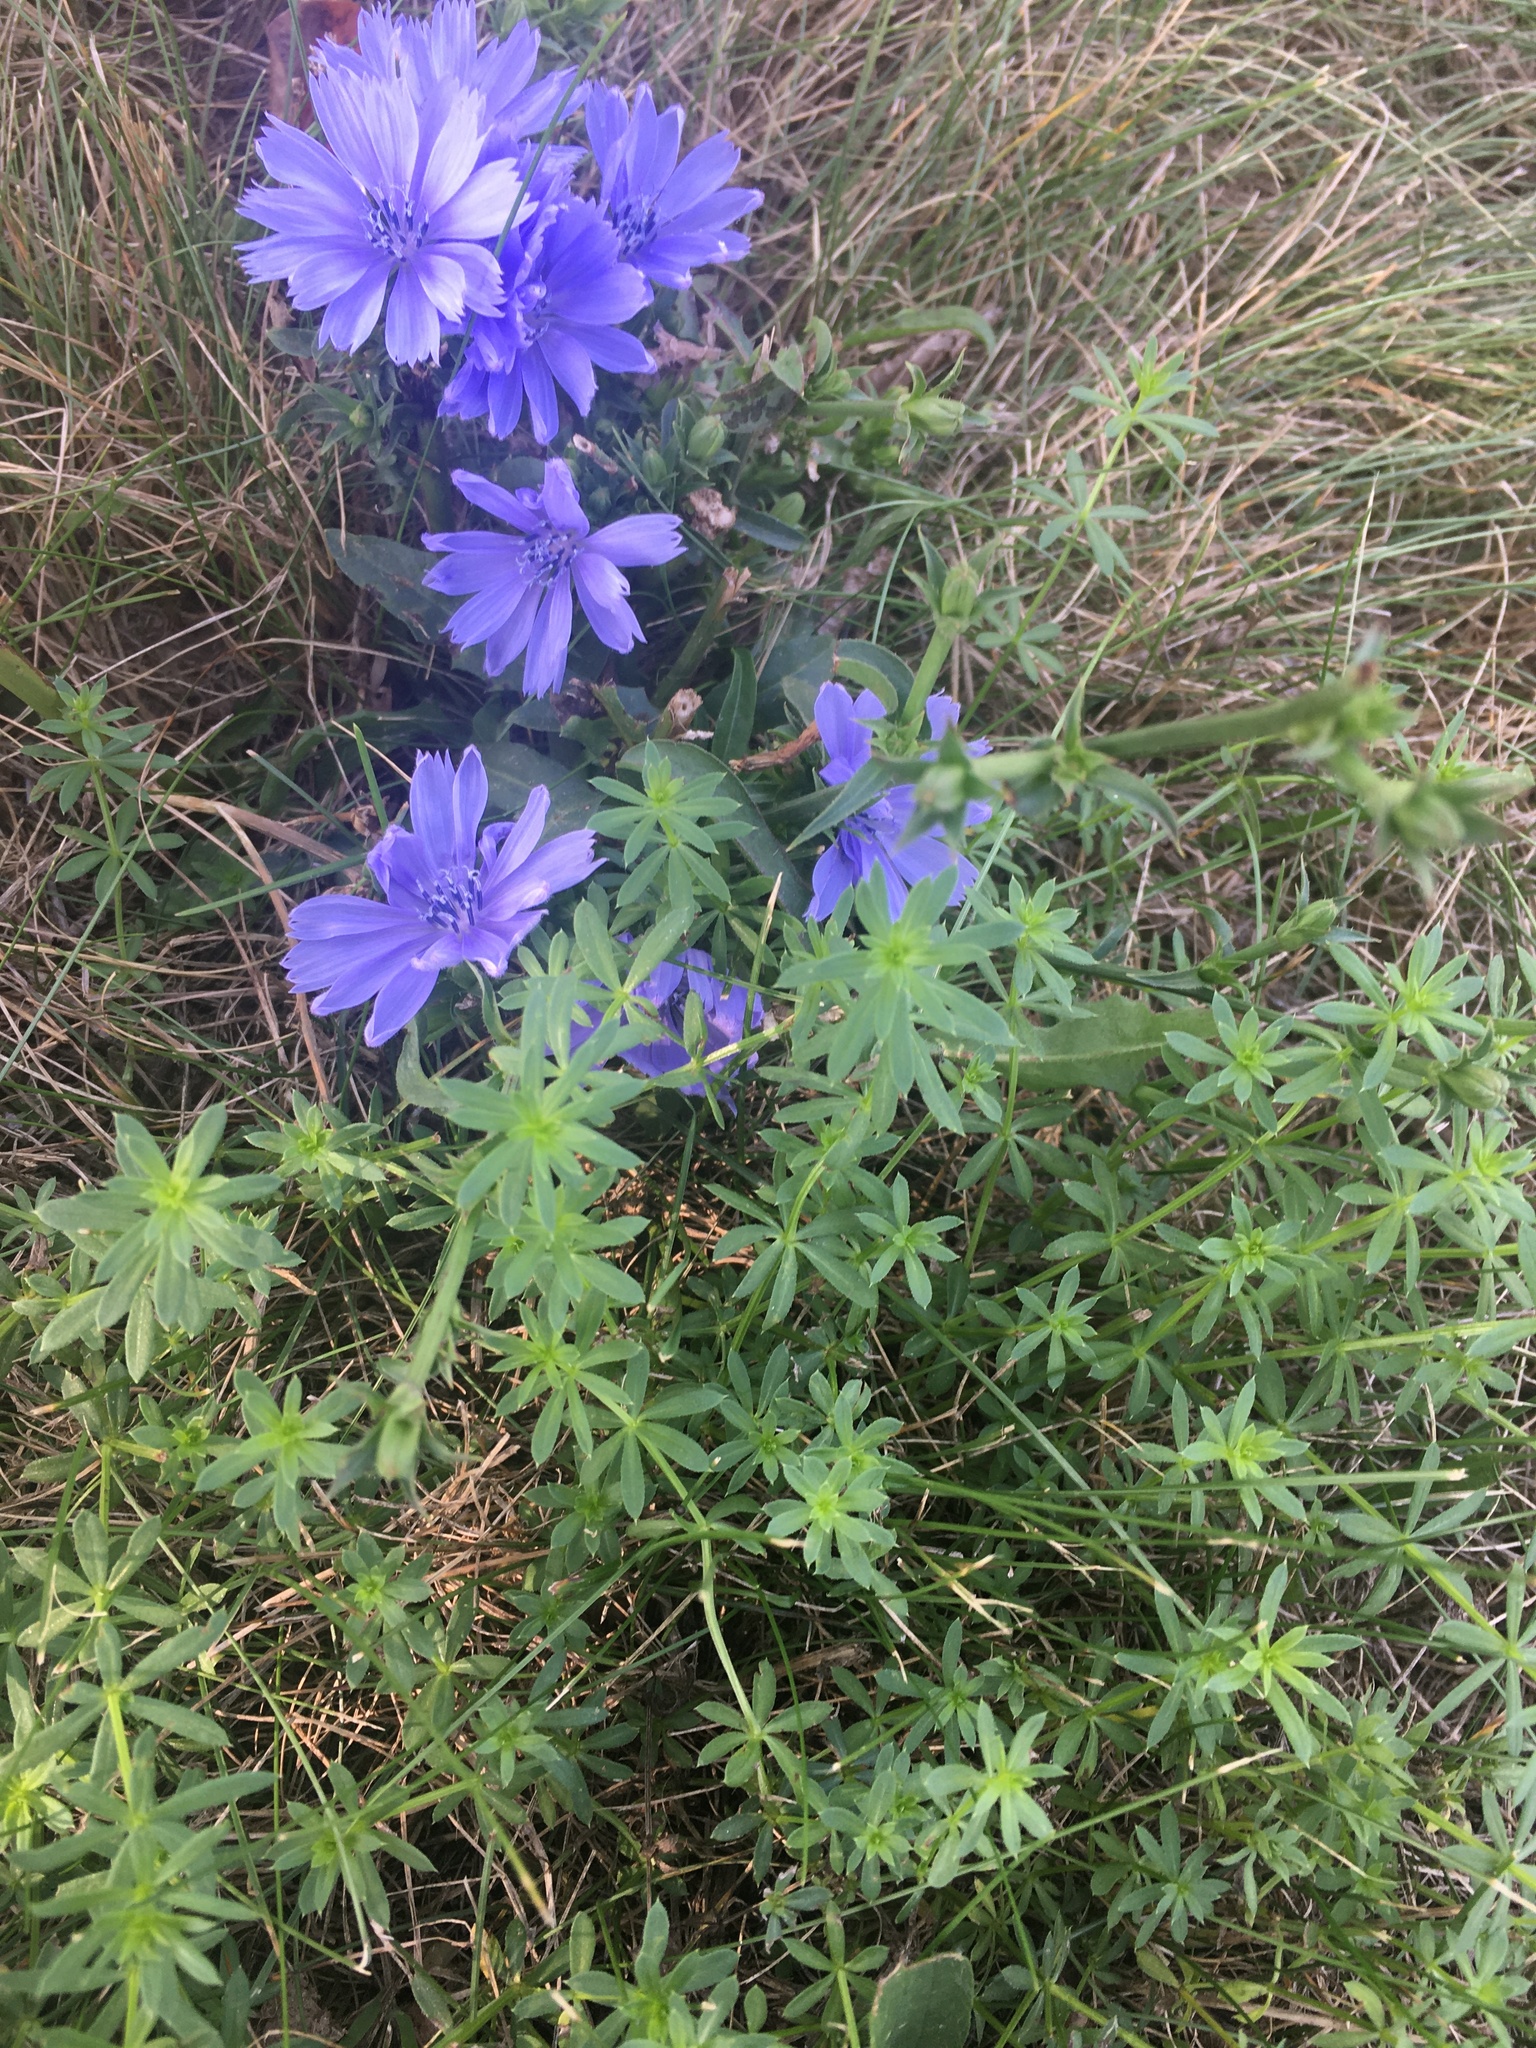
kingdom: Plantae
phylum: Tracheophyta
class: Magnoliopsida
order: Asterales
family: Asteraceae
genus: Cichorium
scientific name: Cichorium intybus
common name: Chicory
